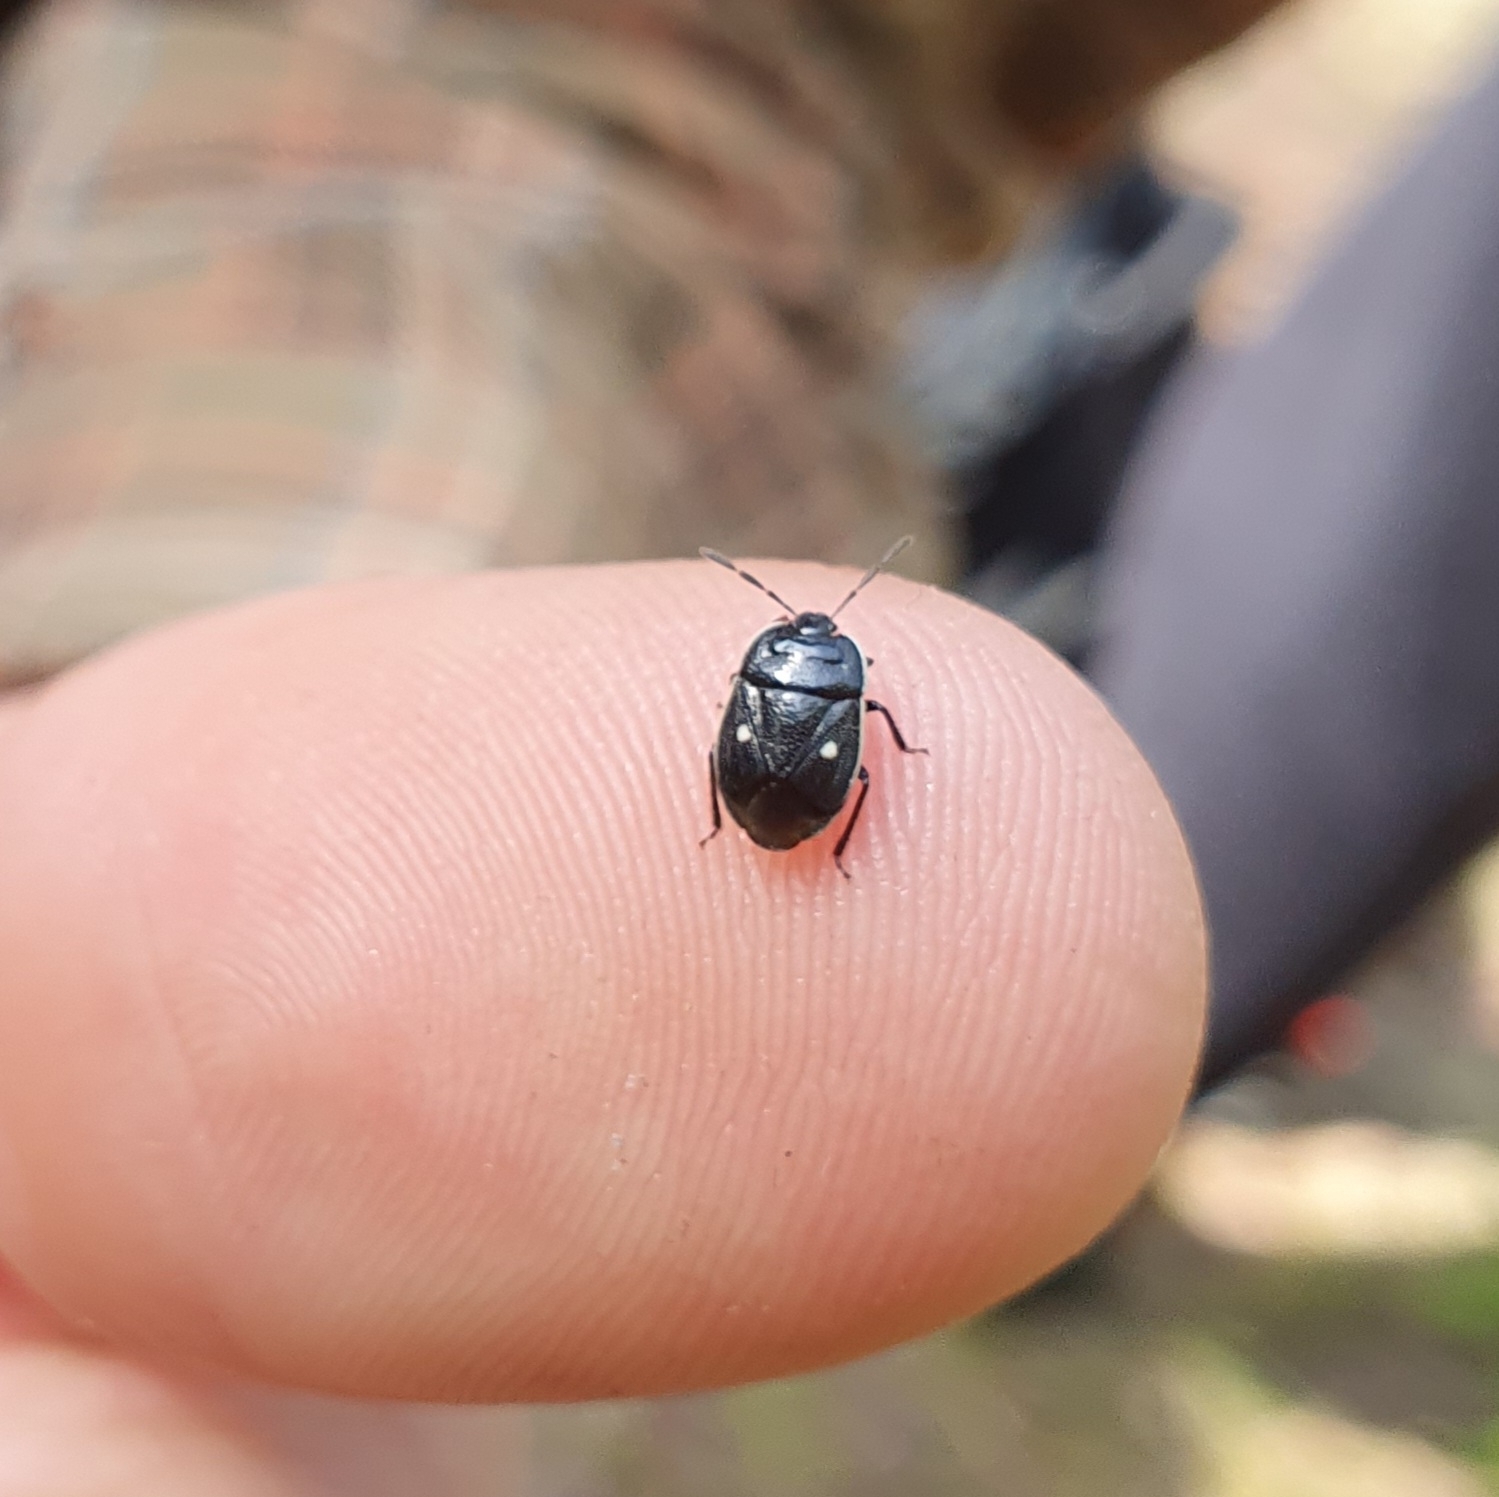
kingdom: Animalia
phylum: Arthropoda
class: Insecta
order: Hemiptera
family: Cydnidae
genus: Adomerus
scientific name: Adomerus biguttatus
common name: Cow wheat shieldbug
